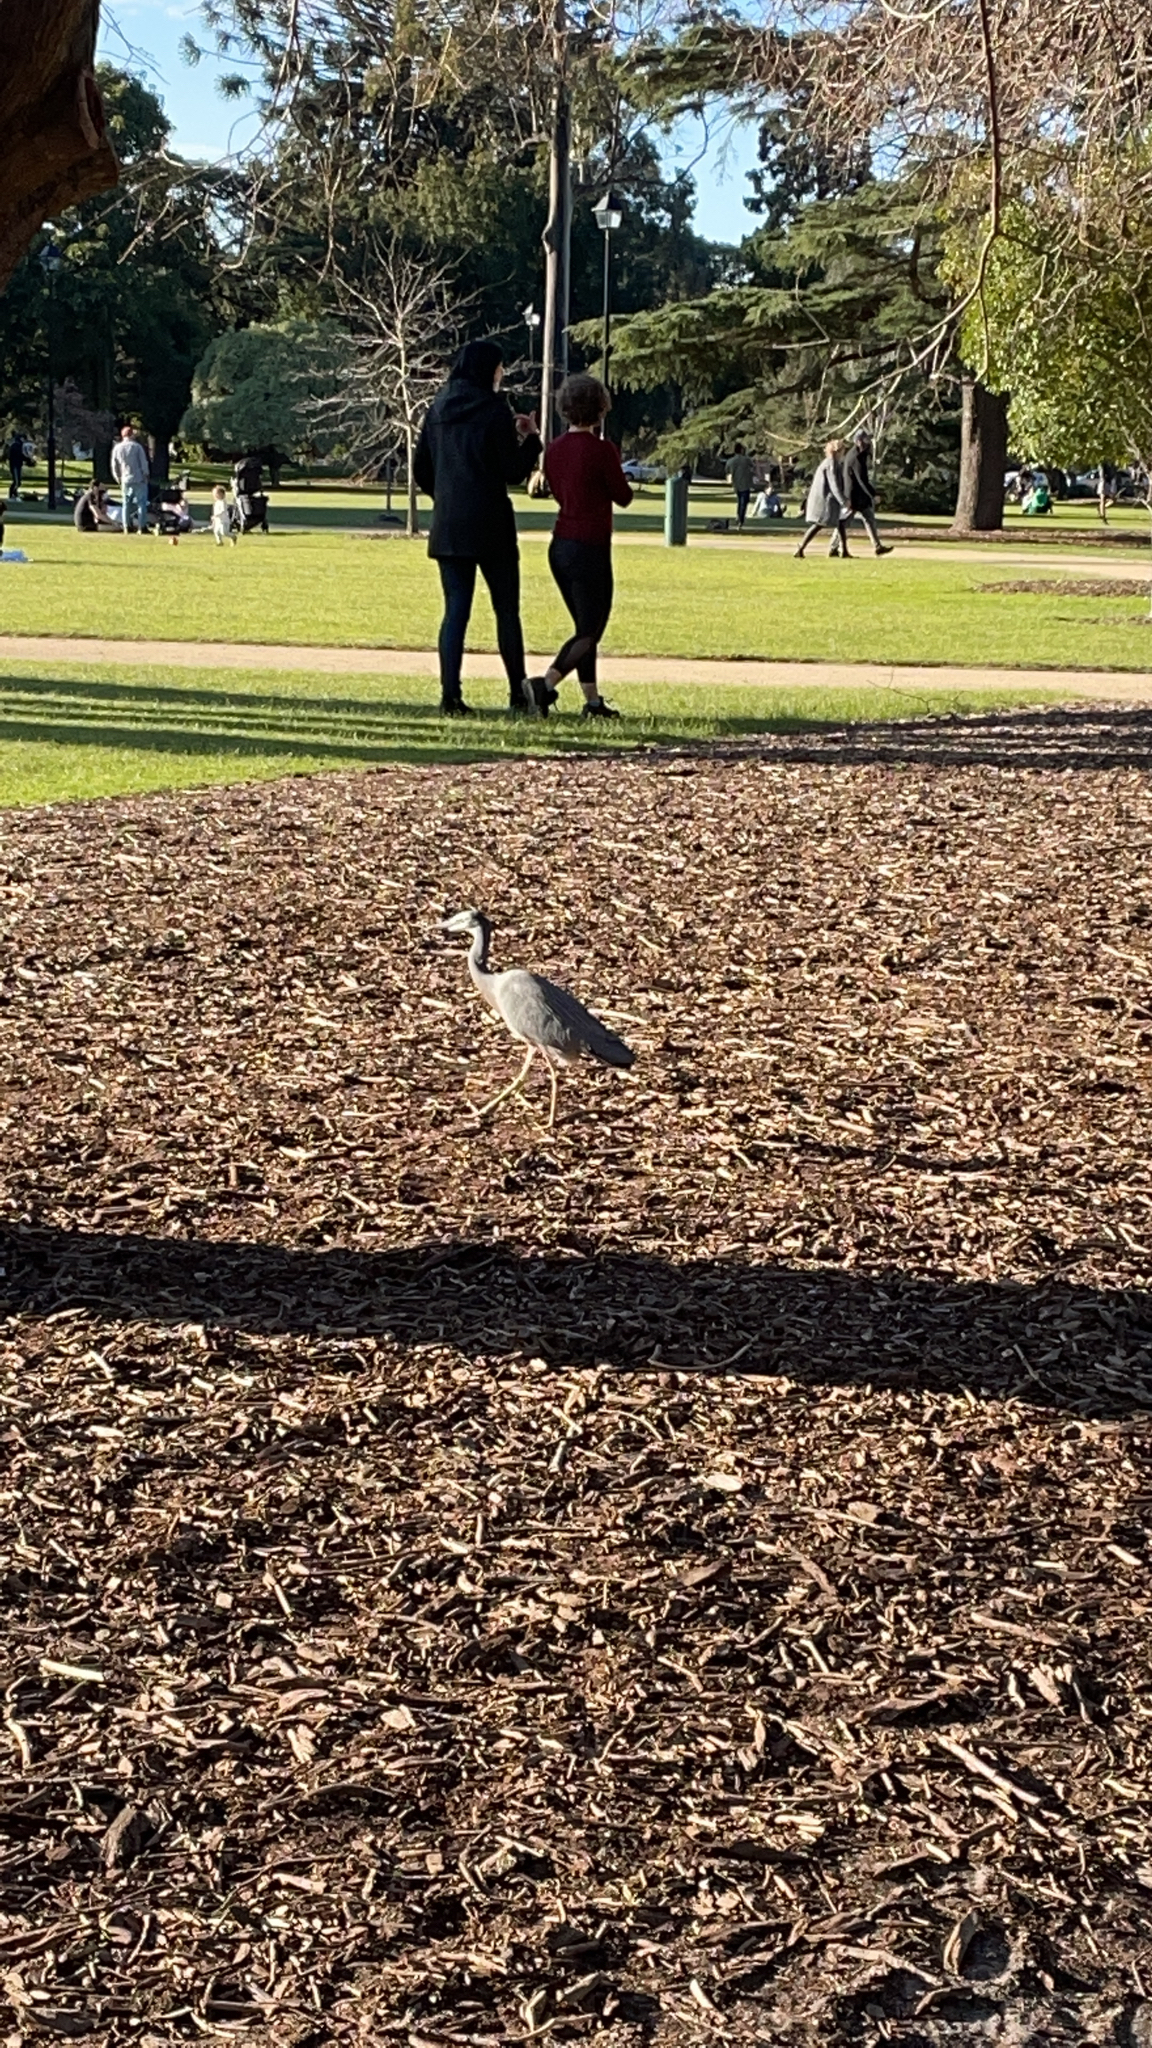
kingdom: Animalia
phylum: Chordata
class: Aves
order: Pelecaniformes
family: Ardeidae
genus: Egretta
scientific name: Egretta novaehollandiae
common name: White-faced heron
